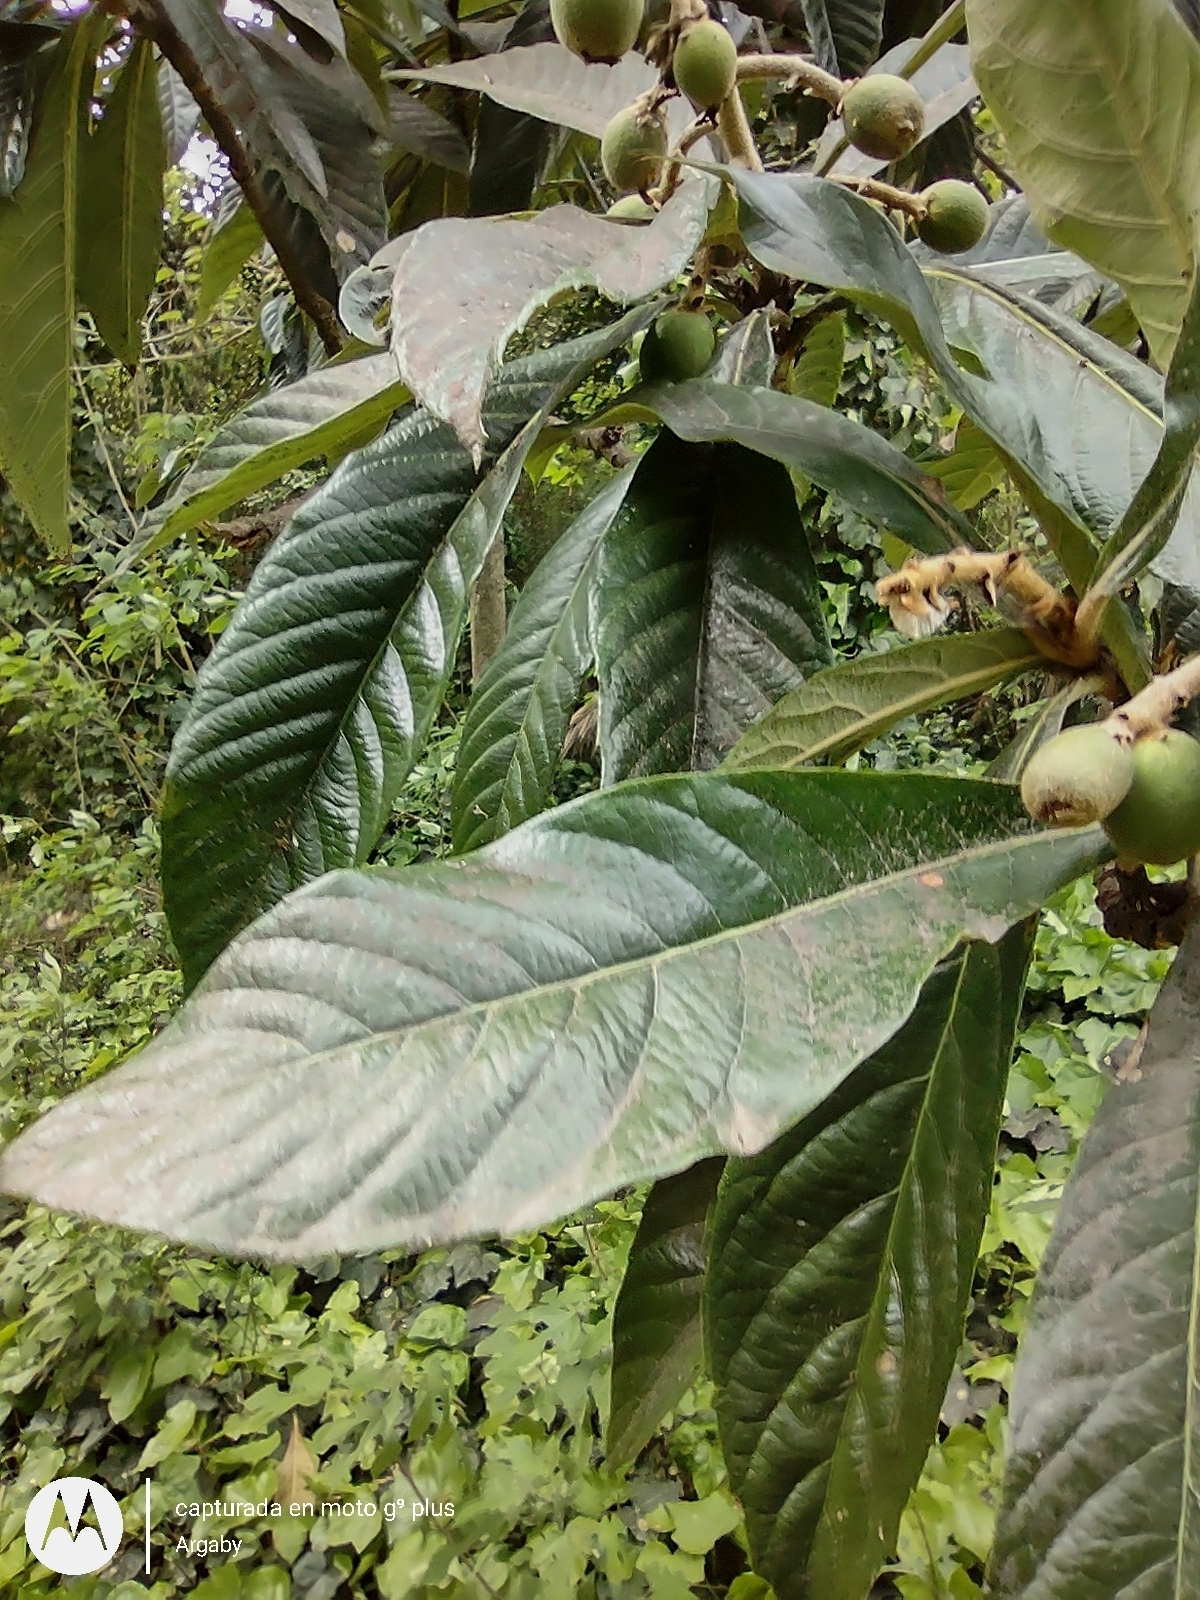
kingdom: Plantae
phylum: Tracheophyta
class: Magnoliopsida
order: Rosales
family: Rosaceae
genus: Rhaphiolepis
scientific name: Rhaphiolepis bibas
